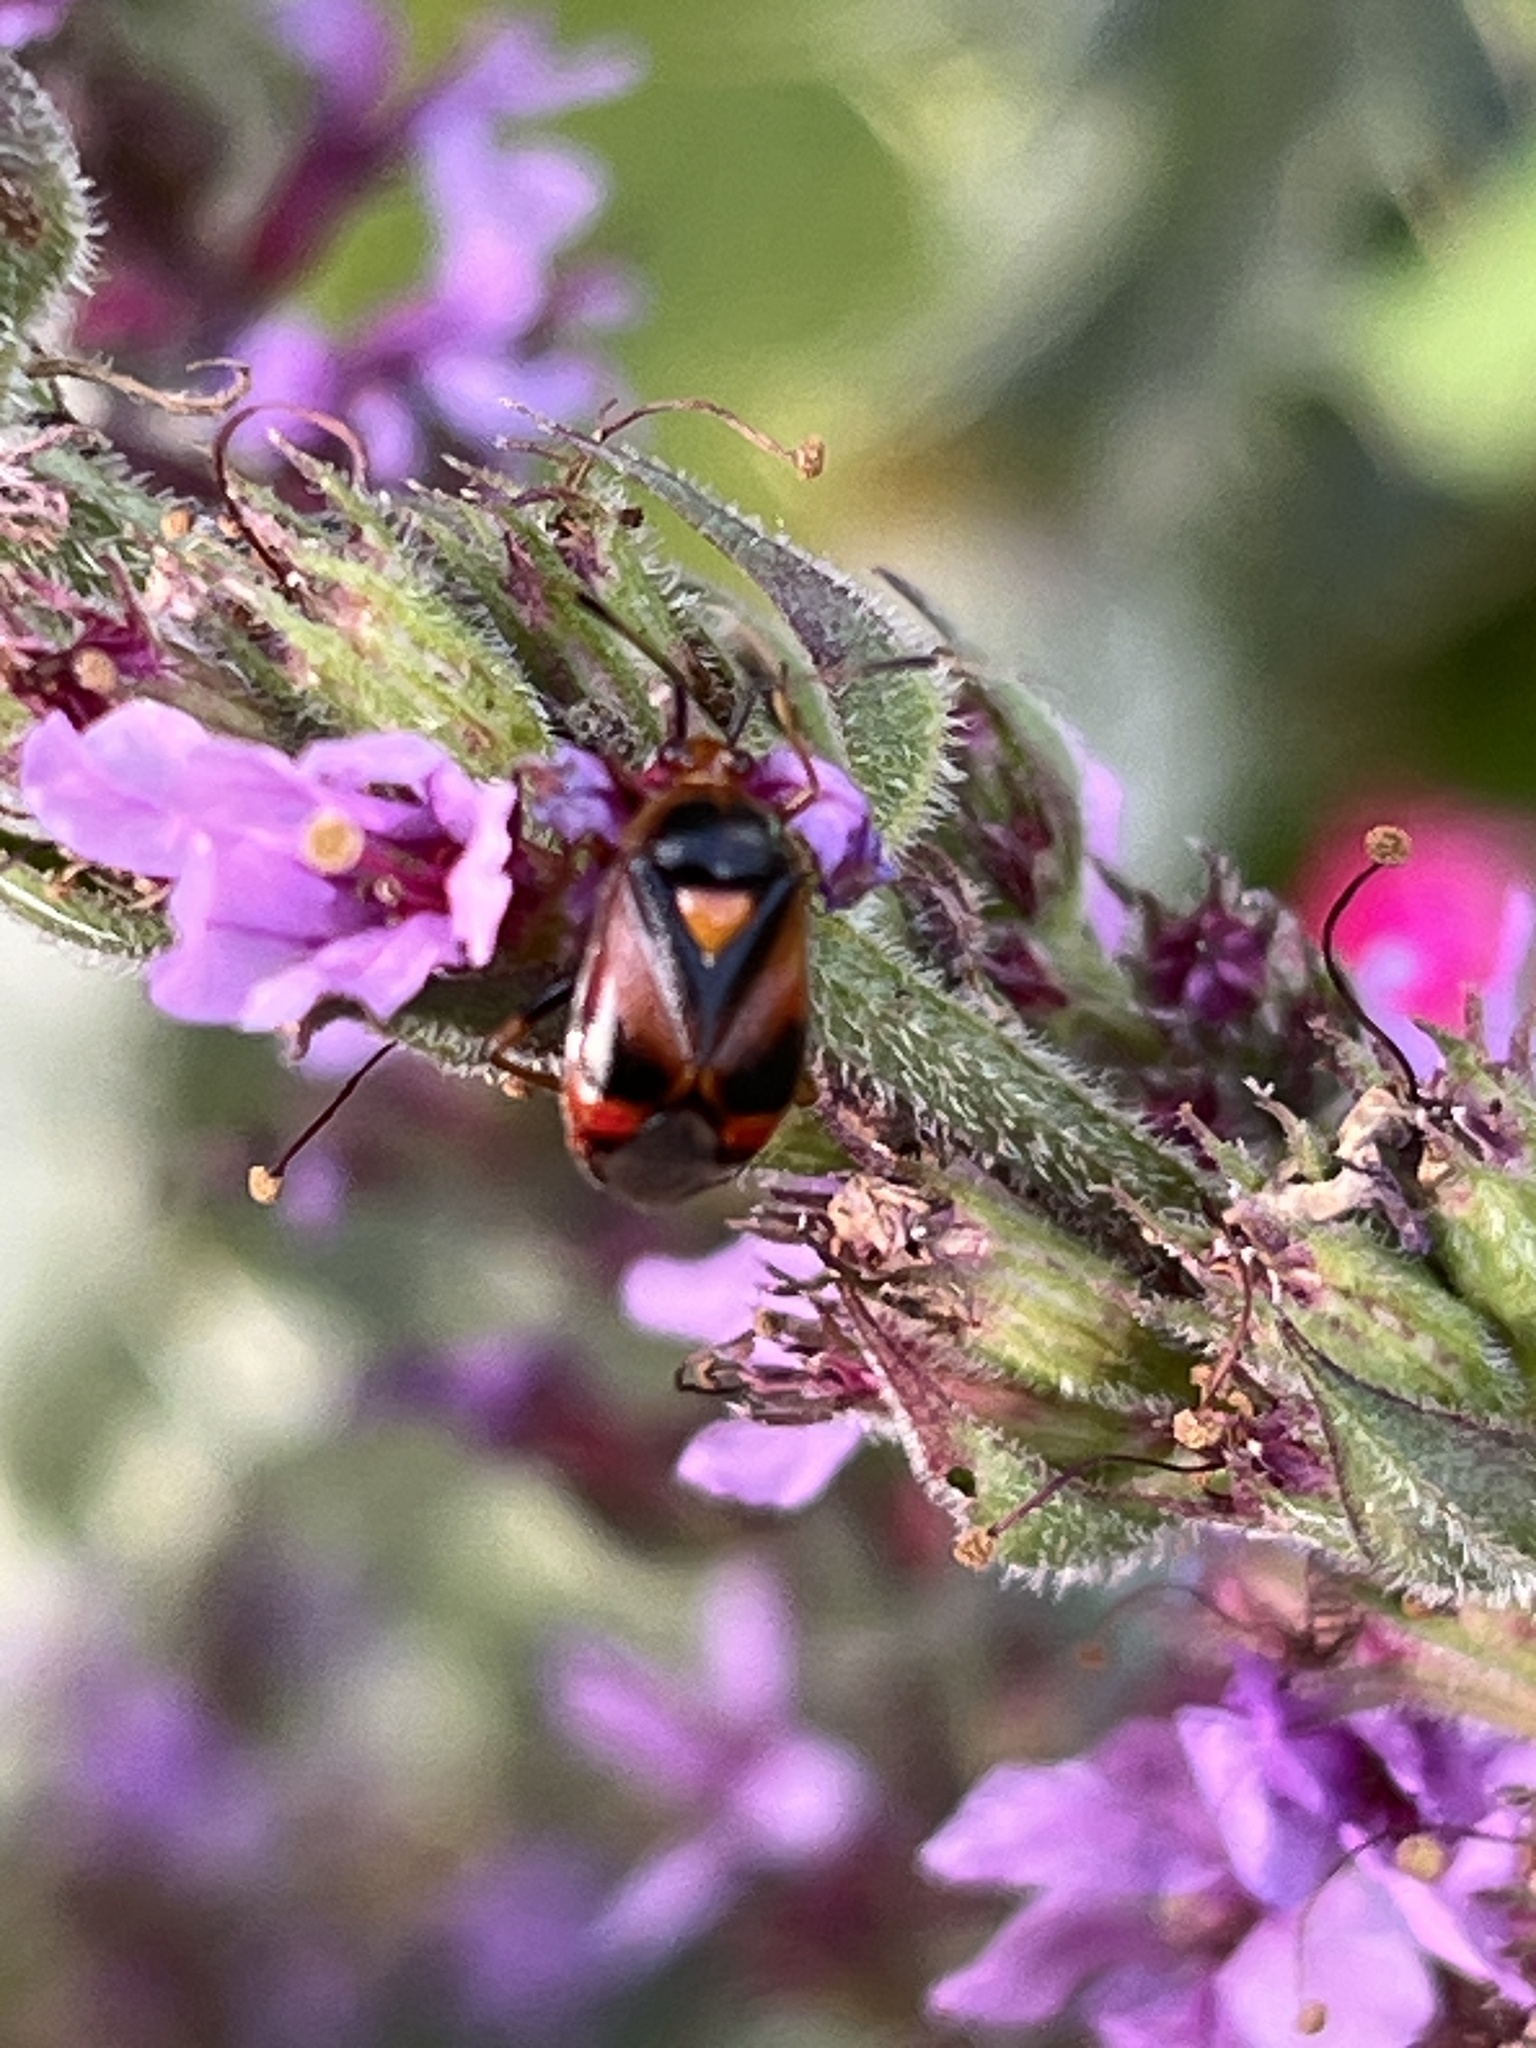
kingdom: Animalia
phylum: Arthropoda
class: Insecta
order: Hemiptera
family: Miridae
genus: Deraeocoris
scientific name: Deraeocoris ruber
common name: Plant bug
